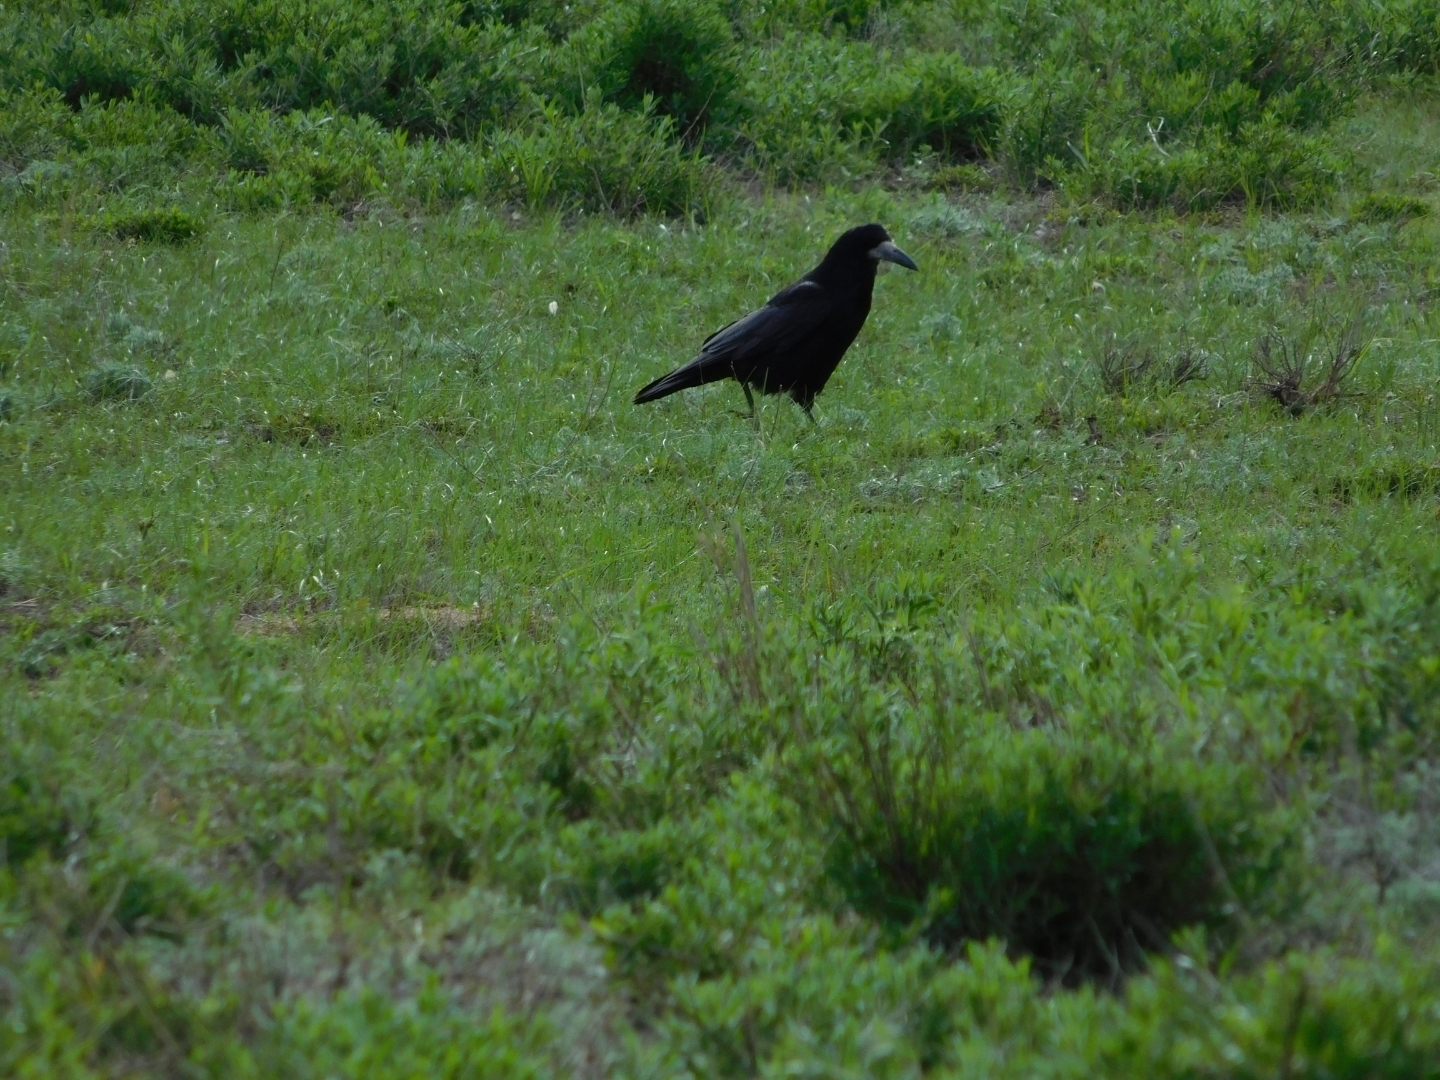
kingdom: Animalia
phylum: Chordata
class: Aves
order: Passeriformes
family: Corvidae
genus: Corvus
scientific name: Corvus frugilegus
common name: Rook
